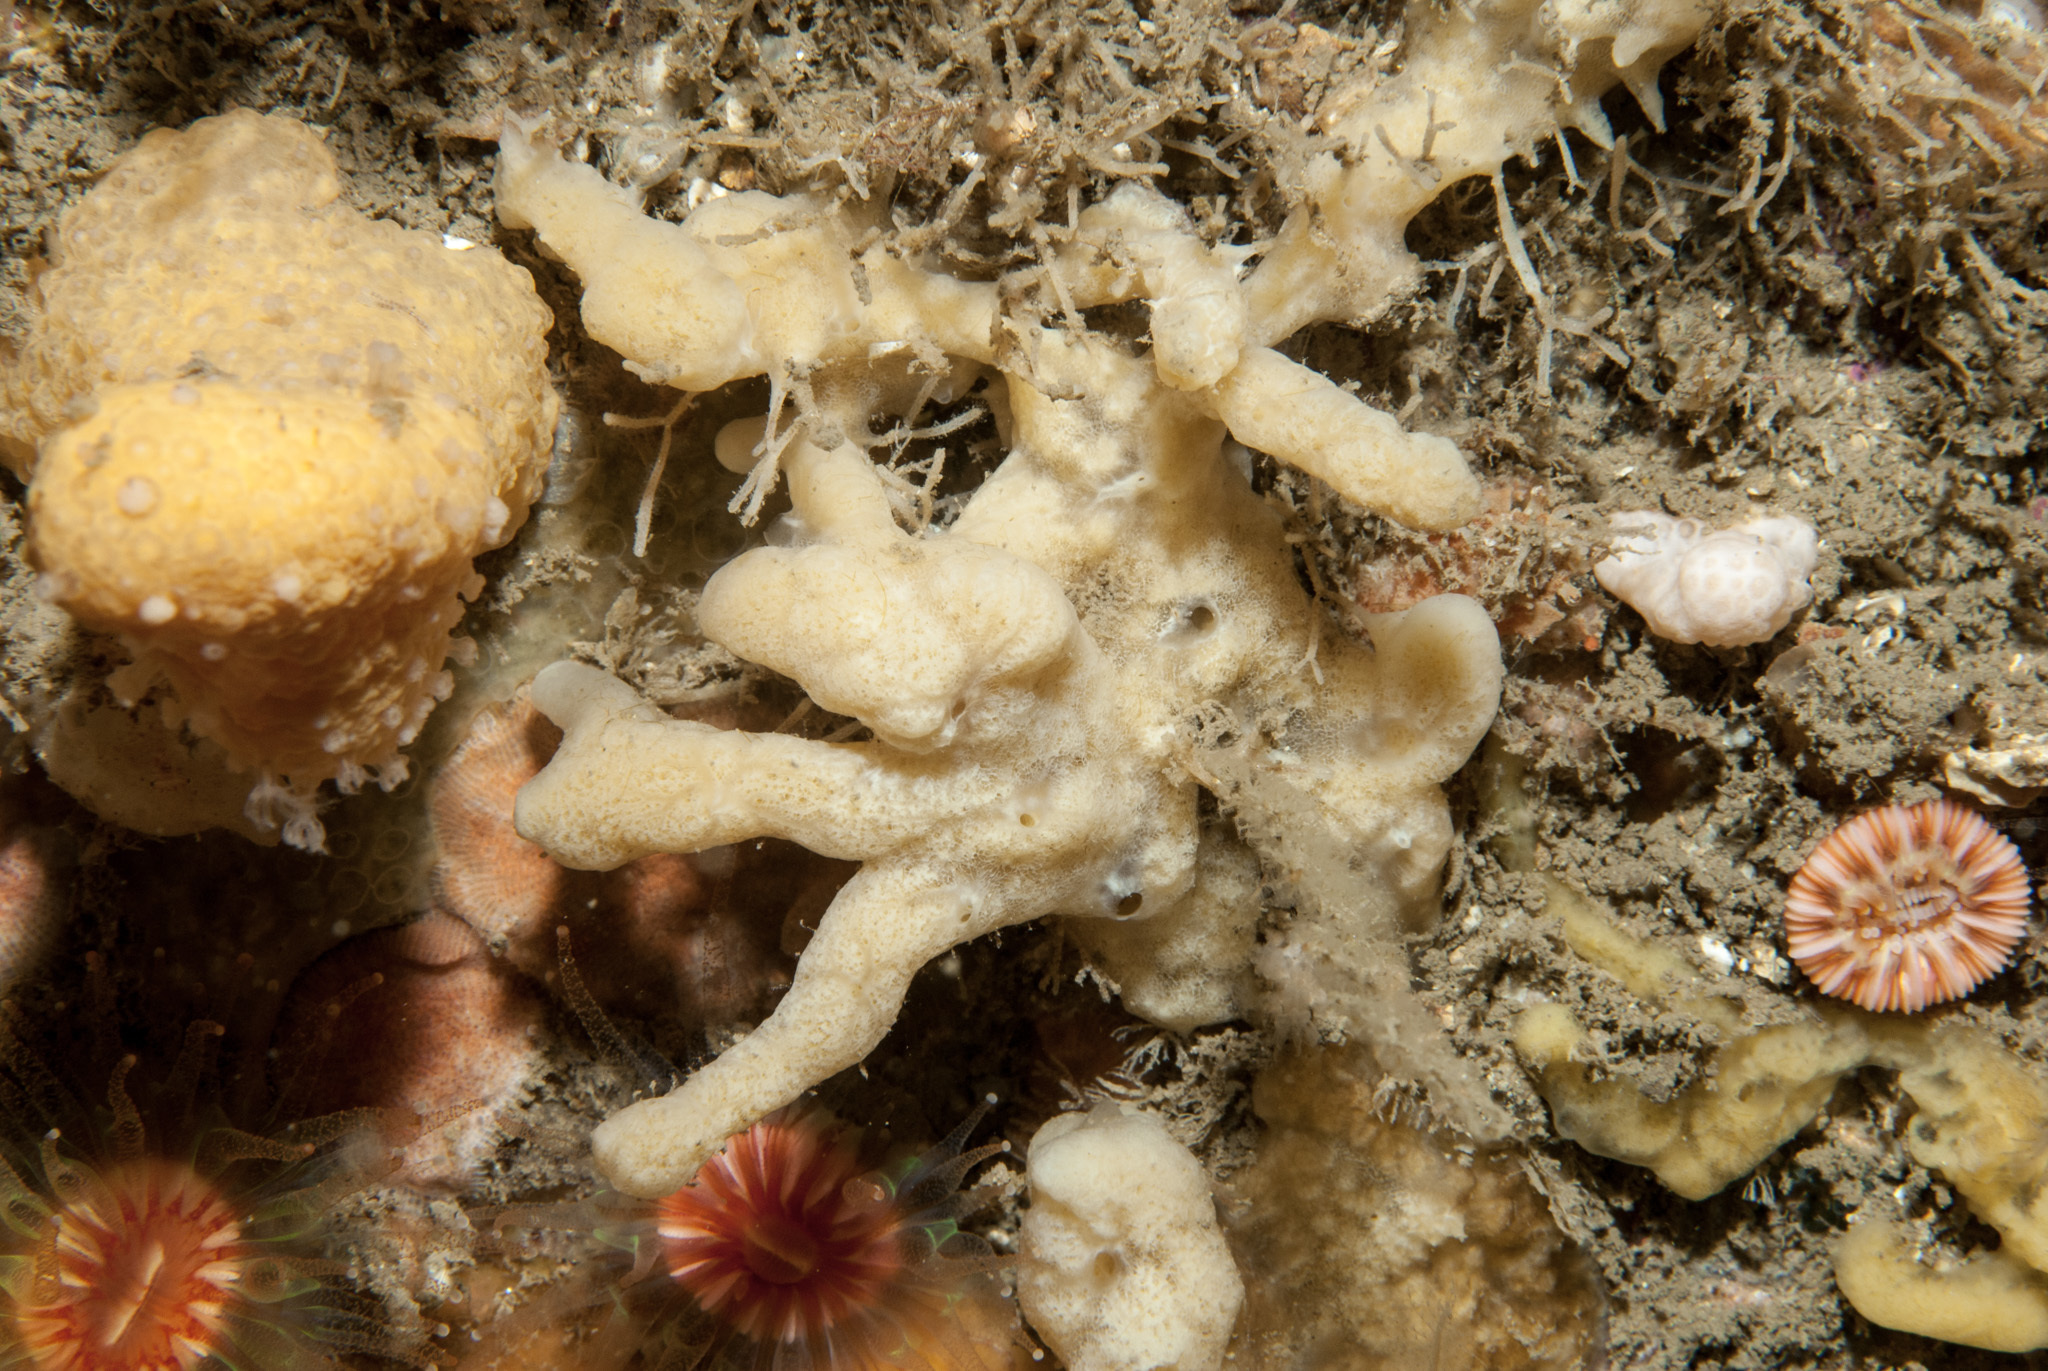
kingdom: Animalia
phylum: Porifera
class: Demospongiae
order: Poecilosclerida
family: Acarnidae
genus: Iophon
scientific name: Iophon nigricans
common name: Yellow-fingered horny sponge
